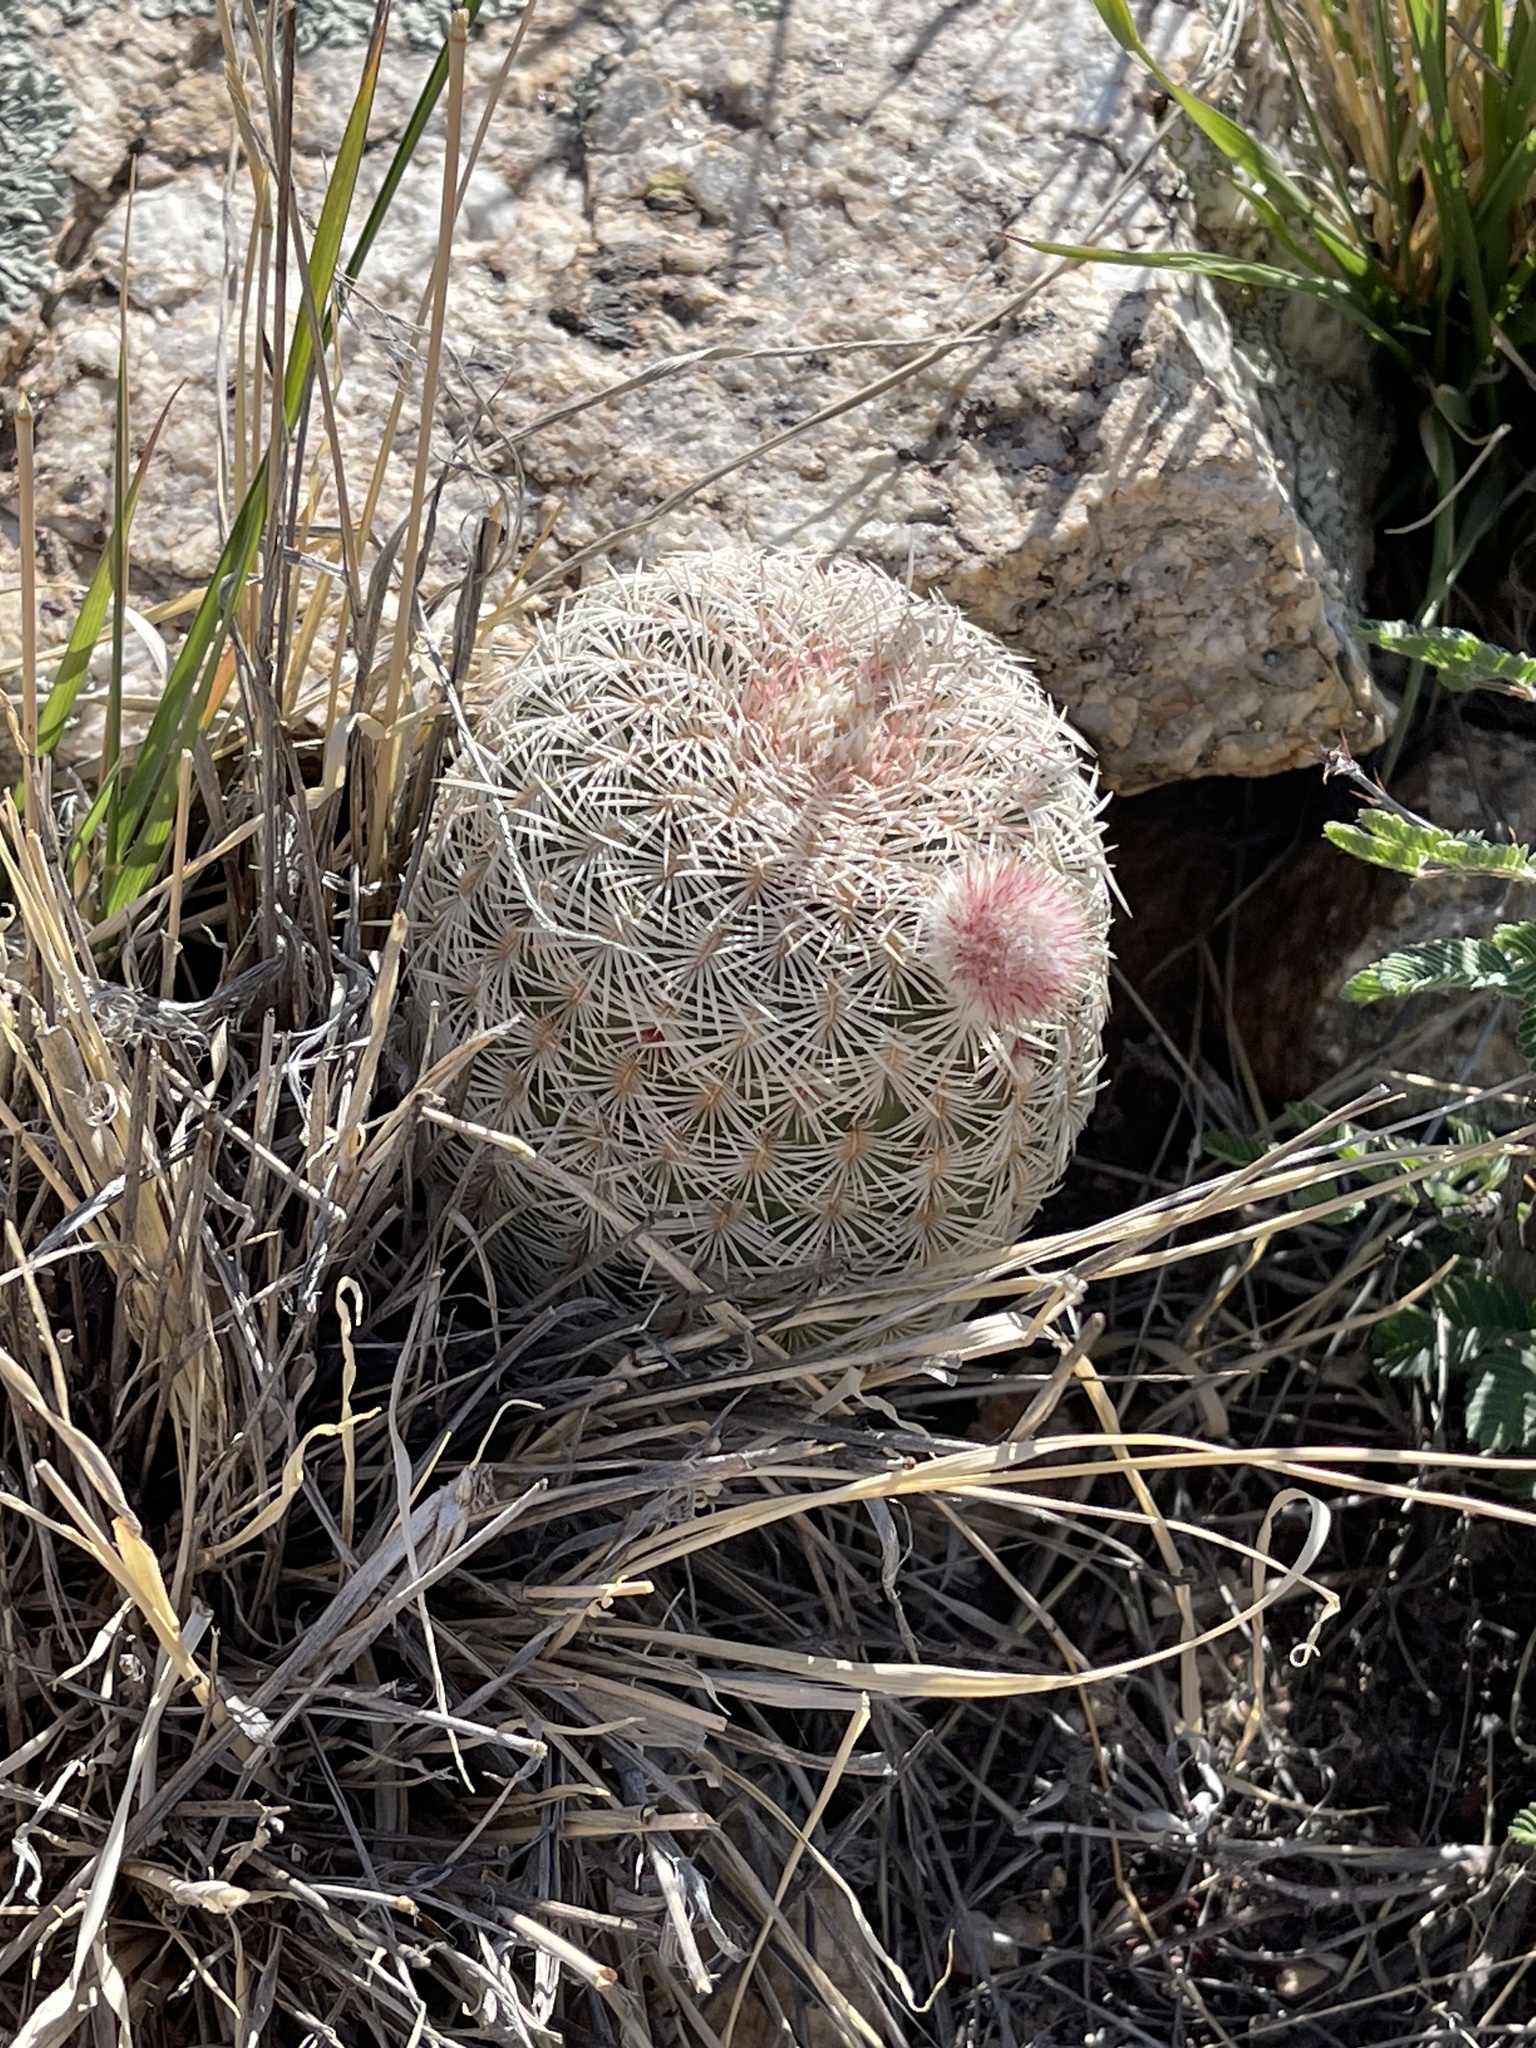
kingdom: Plantae
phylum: Tracheophyta
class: Magnoliopsida
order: Caryophyllales
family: Cactaceae
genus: Echinocereus
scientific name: Echinocereus rigidissimus
